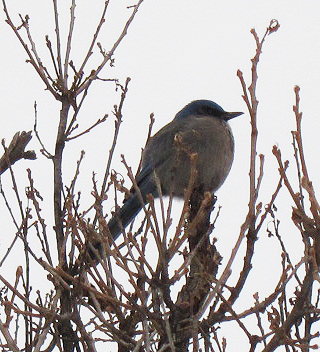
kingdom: Animalia
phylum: Chordata
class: Aves
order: Passeriformes
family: Corvidae
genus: Aphelocoma
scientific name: Aphelocoma woodhouseii
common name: Woodhouse's scrub-jay
